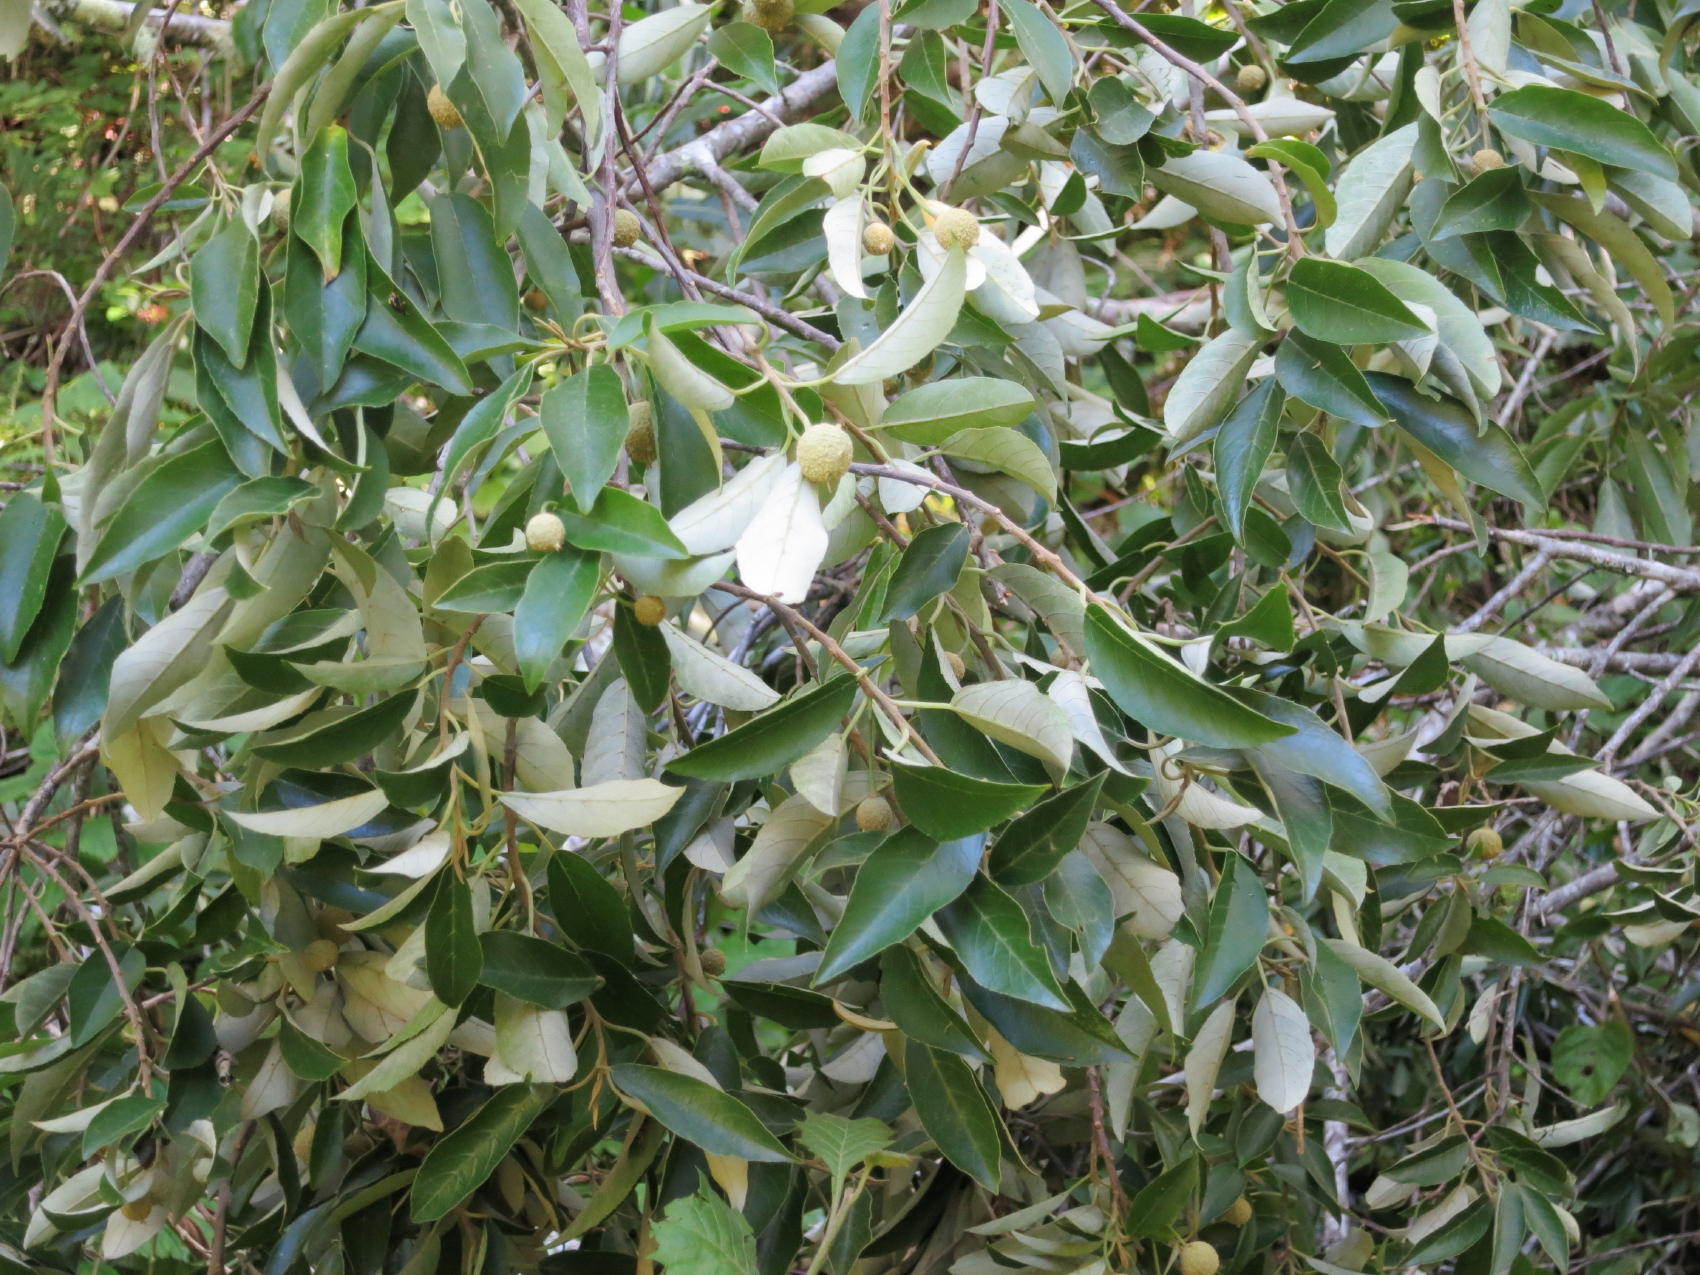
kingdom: Plantae
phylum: Tracheophyta
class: Magnoliopsida
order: Malpighiales
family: Achariaceae
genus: Kiggelaria
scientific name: Kiggelaria africana
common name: Wild peach
